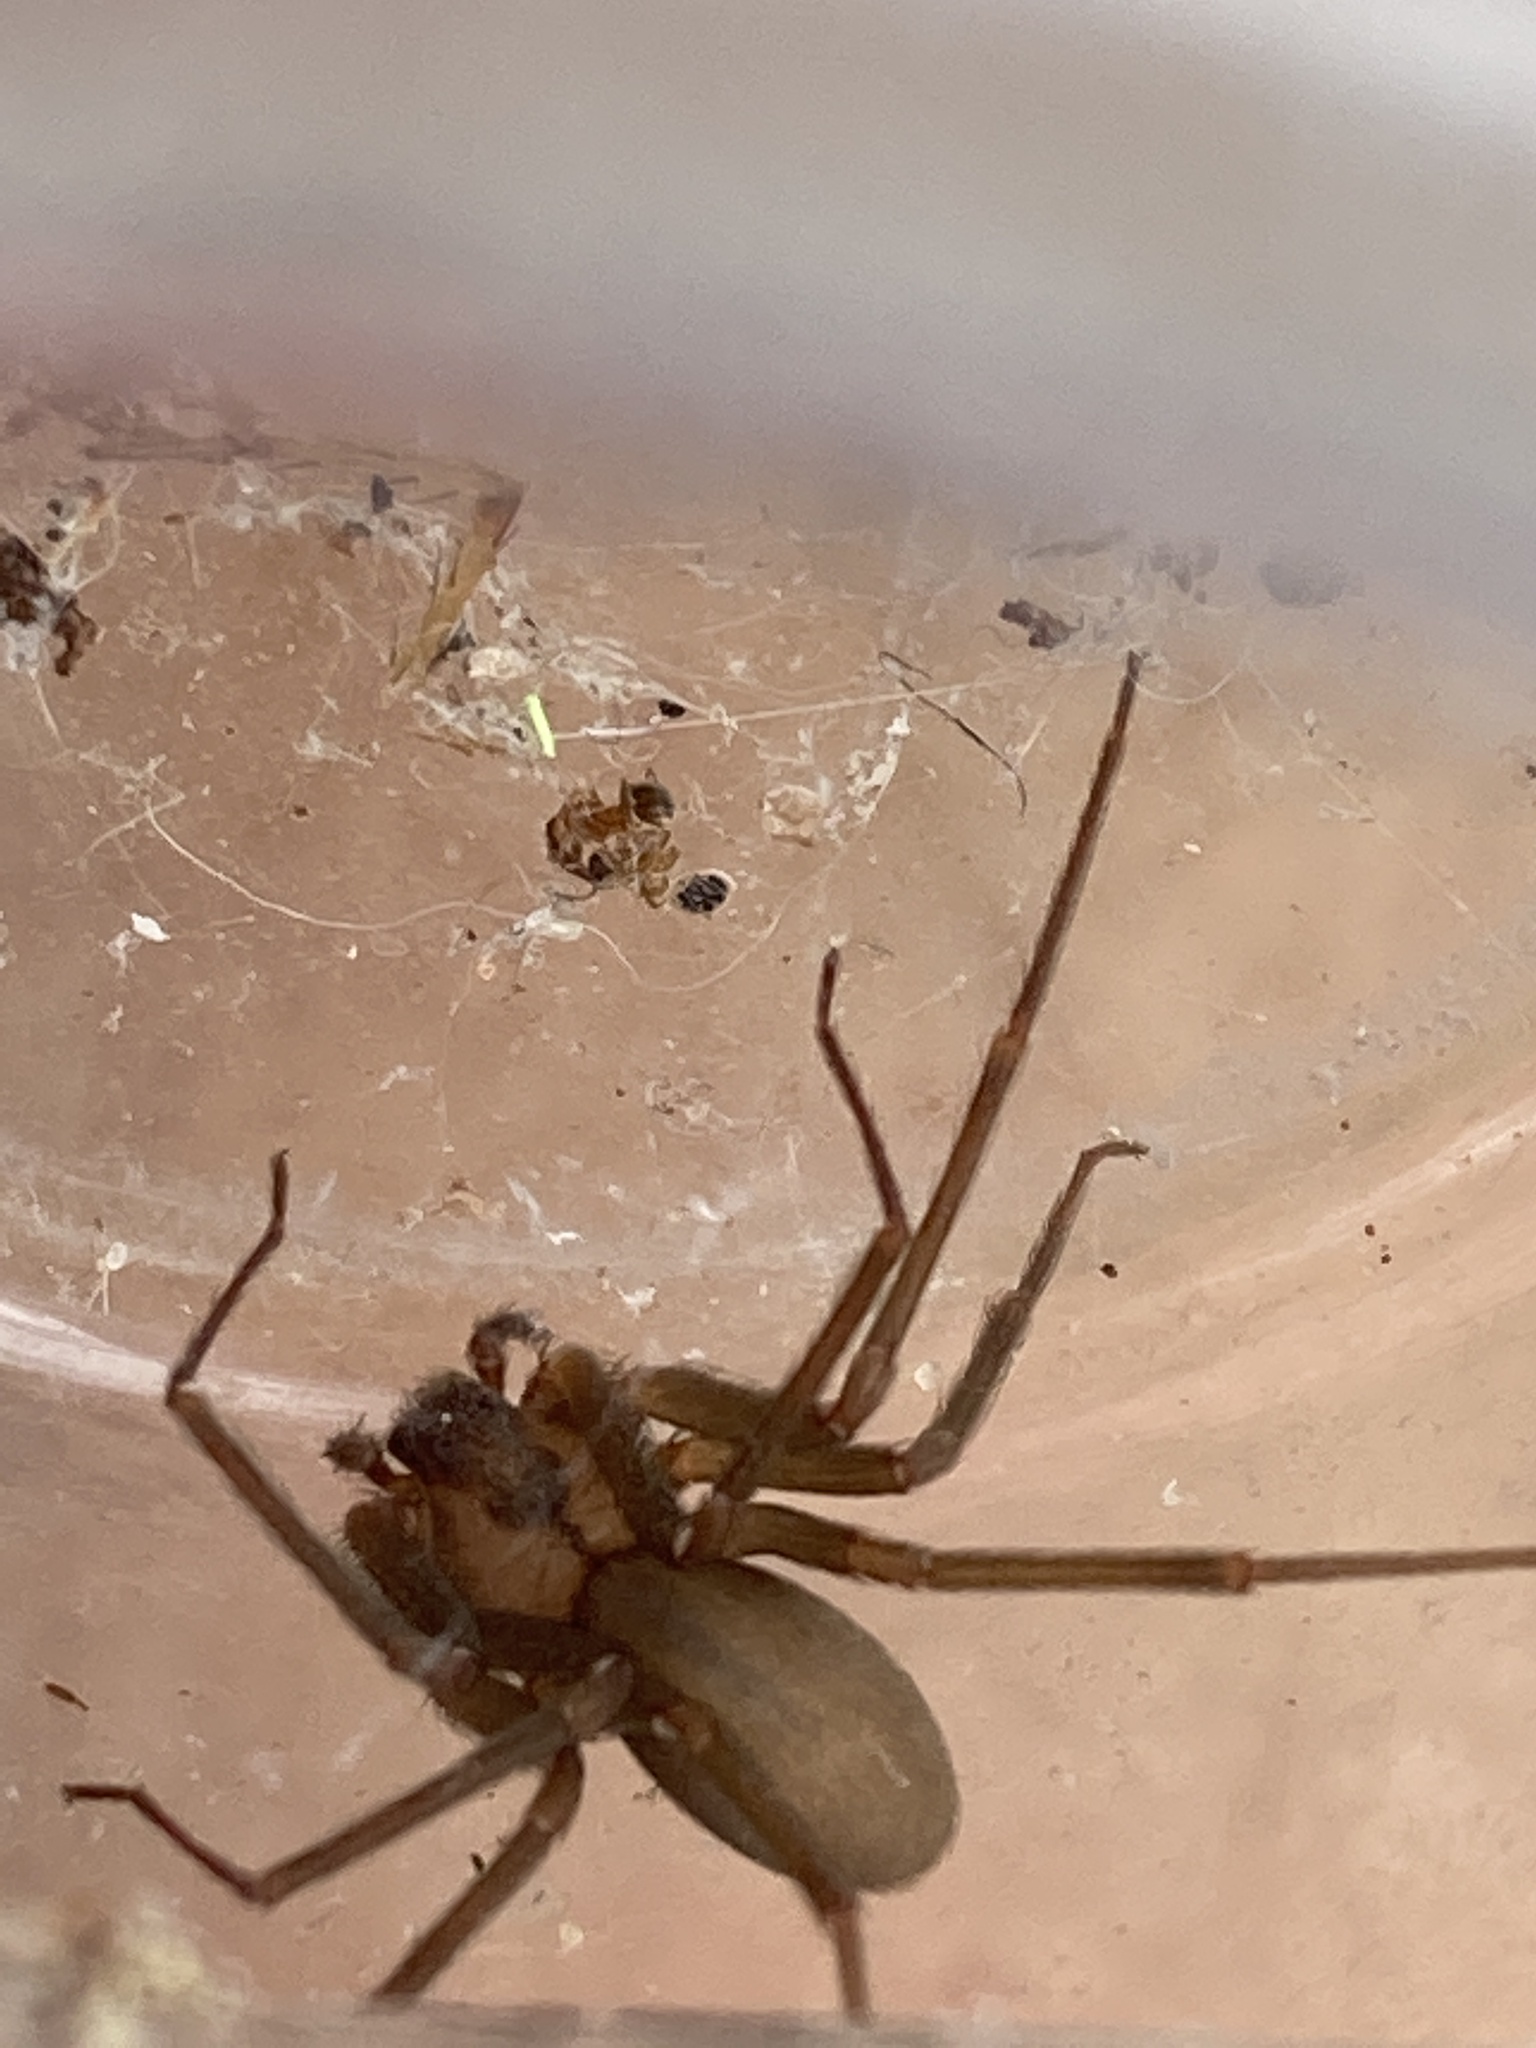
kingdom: Animalia
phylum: Arthropoda
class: Arachnida
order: Araneae
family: Sicariidae
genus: Loxosceles
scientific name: Loxosceles reclusa
